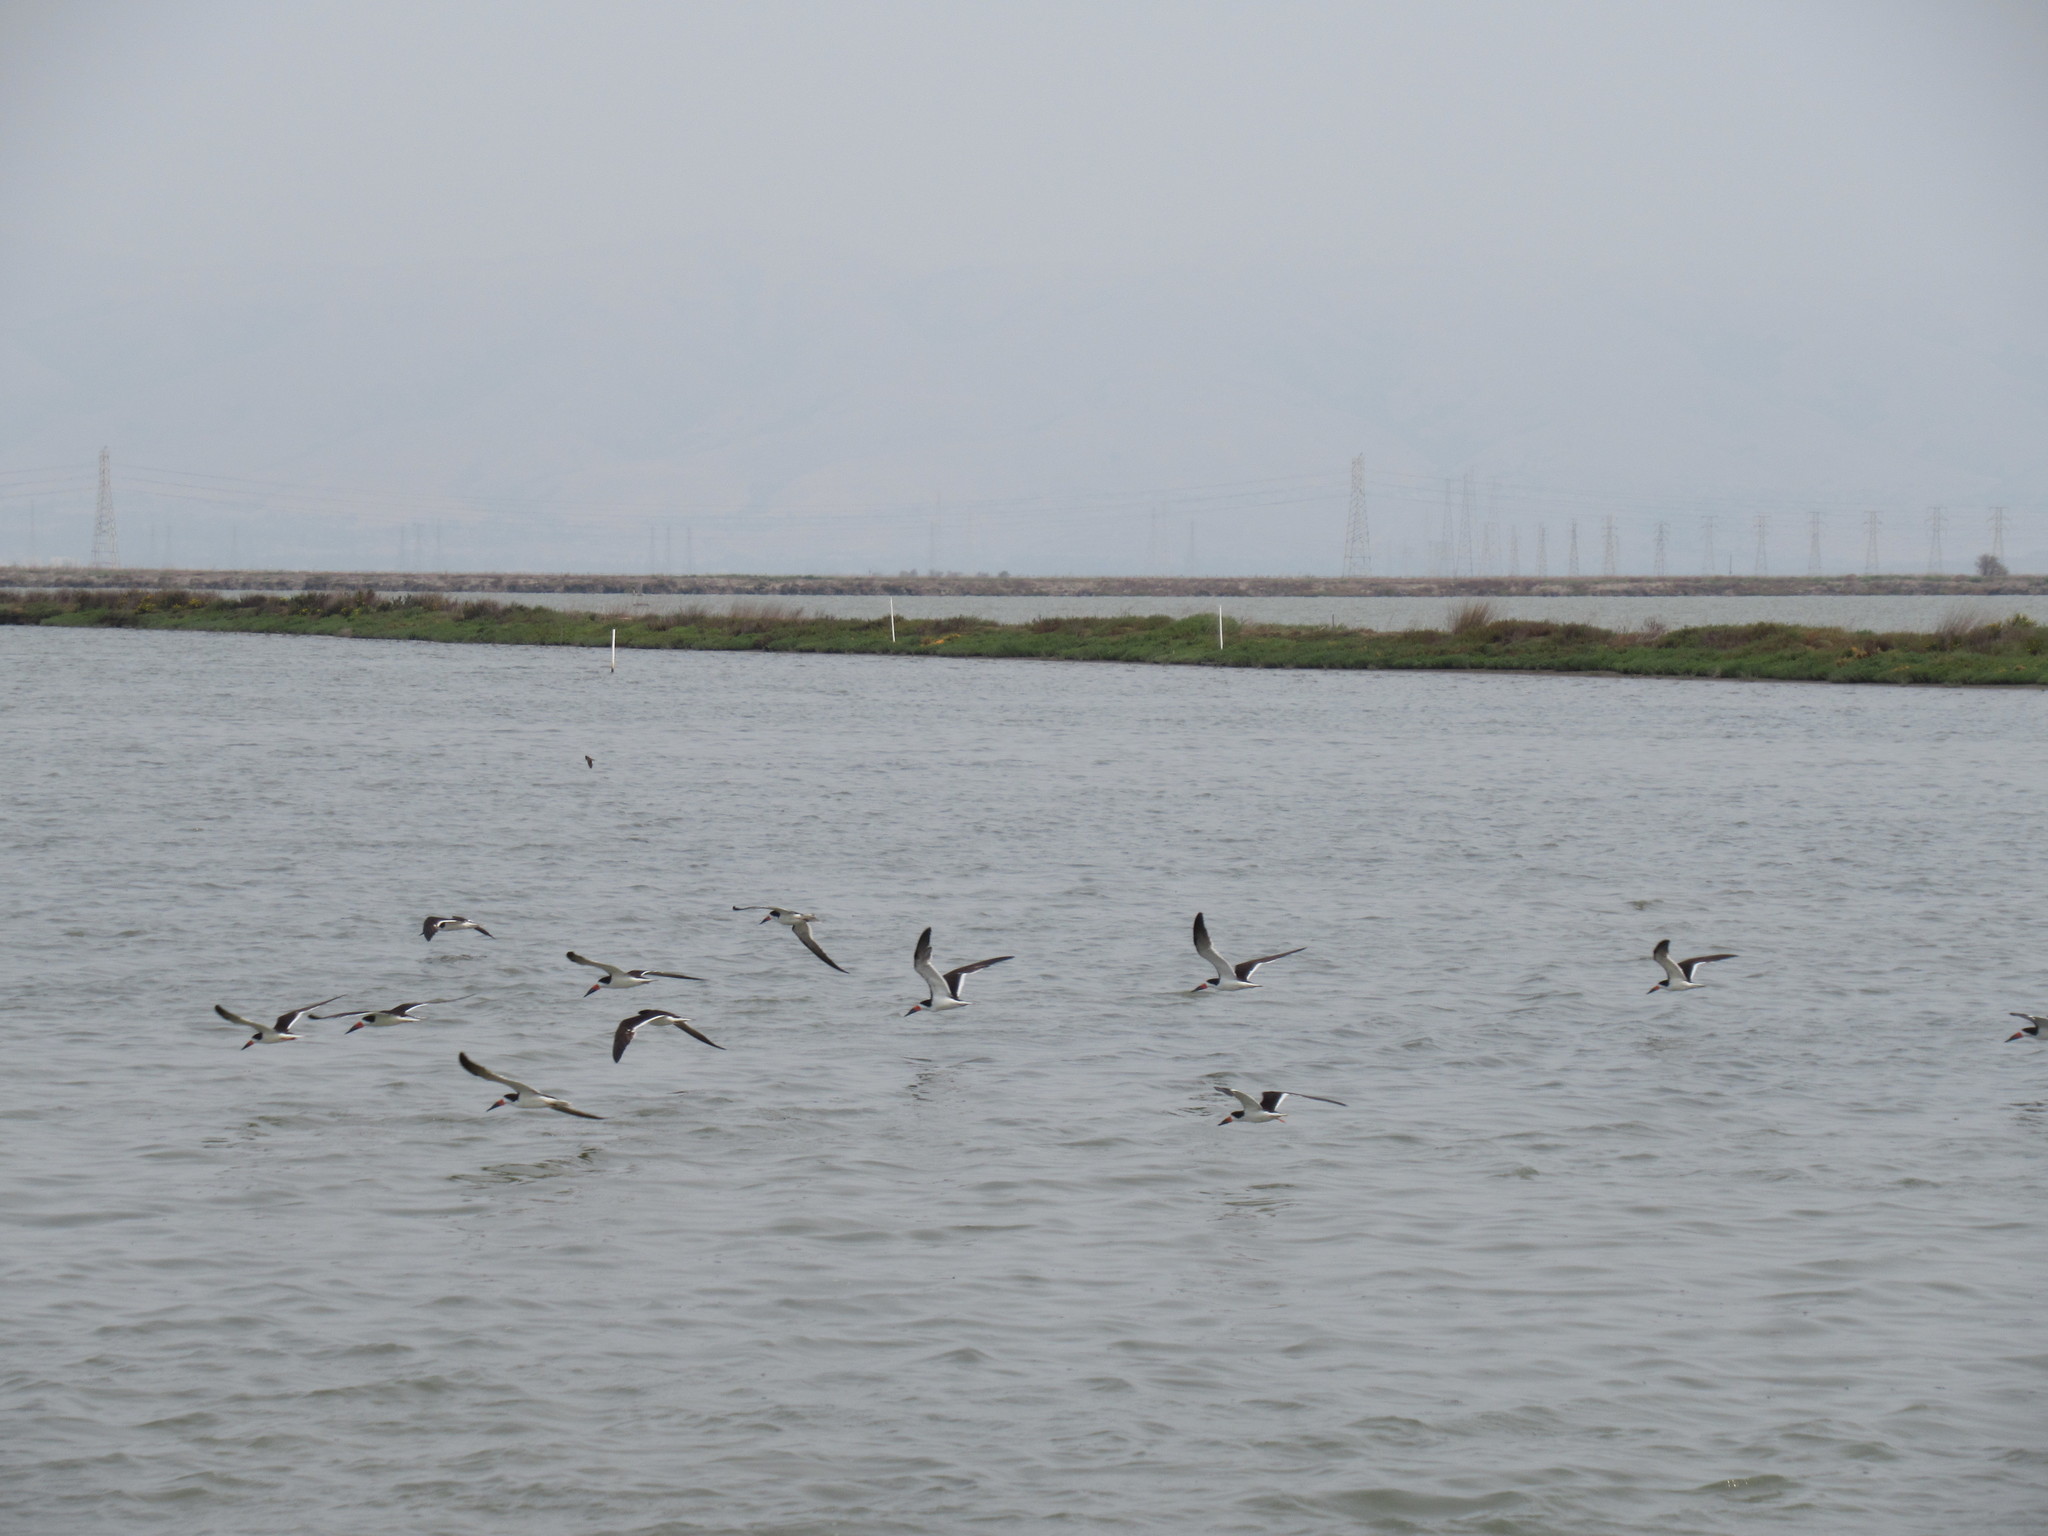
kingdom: Animalia
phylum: Chordata
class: Aves
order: Charadriiformes
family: Laridae
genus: Rynchops
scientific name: Rynchops niger
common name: Black skimmer
